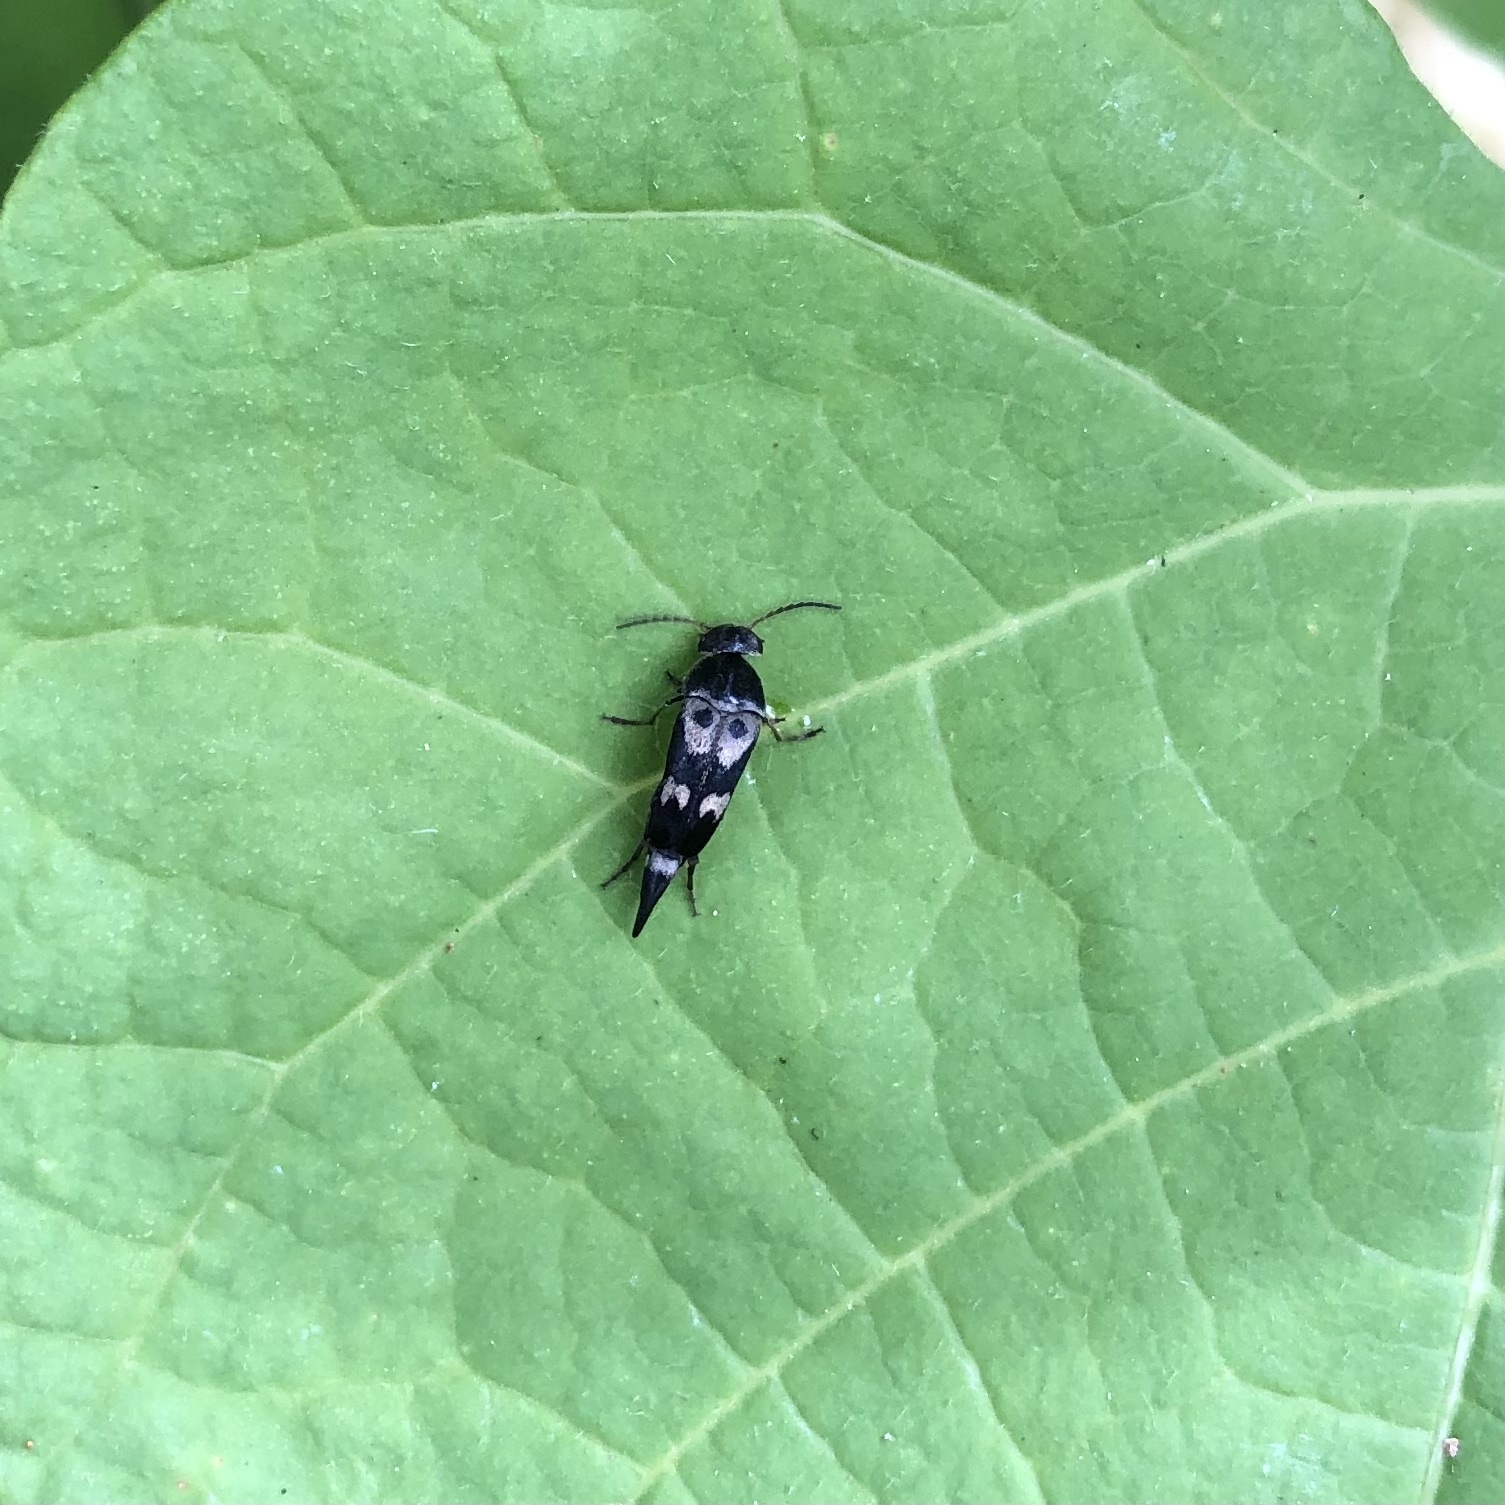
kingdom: Animalia
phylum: Arthropoda
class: Insecta
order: Coleoptera
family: Mordellidae
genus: Glipa
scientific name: Glipa oculata
